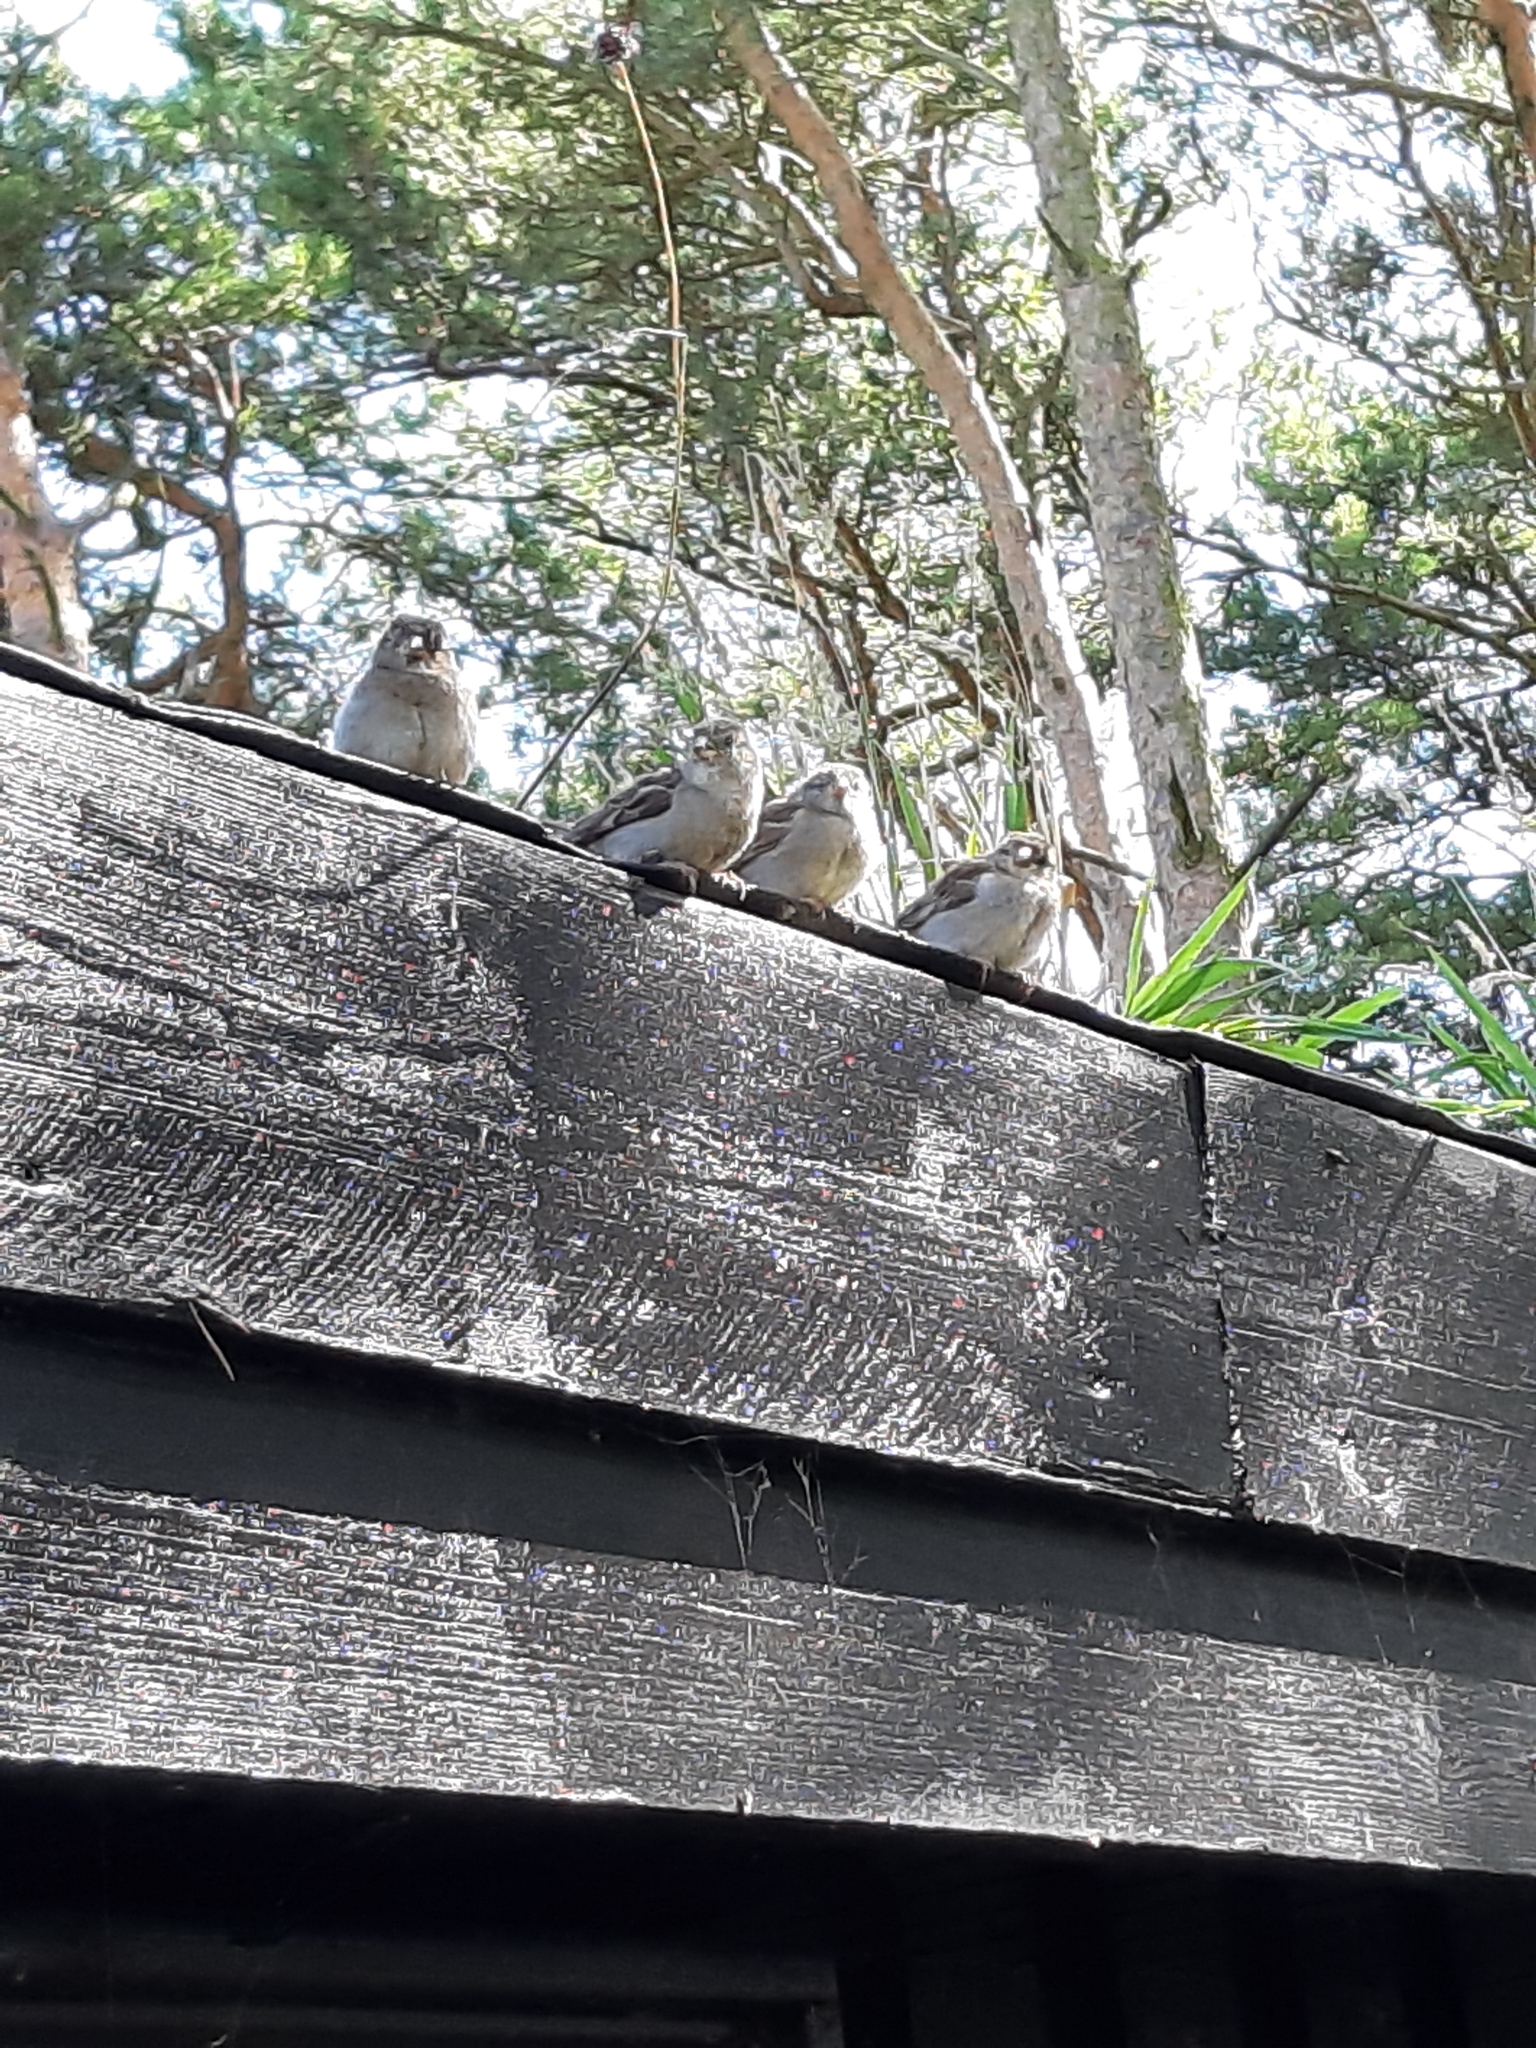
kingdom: Animalia
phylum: Chordata
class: Aves
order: Passeriformes
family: Passeridae
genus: Passer
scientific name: Passer domesticus
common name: House sparrow
